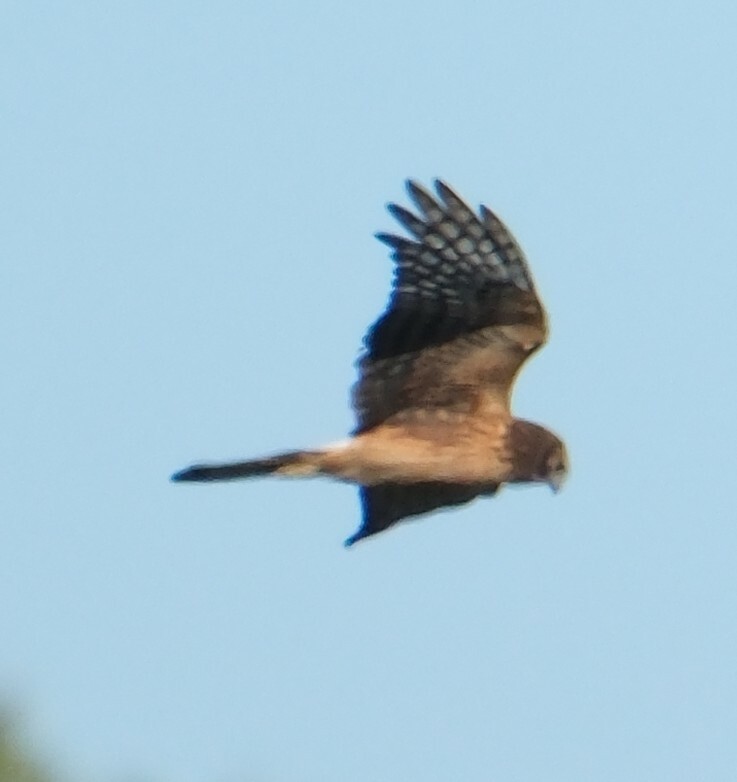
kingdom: Animalia
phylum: Chordata
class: Aves
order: Accipitriformes
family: Accipitridae
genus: Circus
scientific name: Circus cyaneus
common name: Hen harrier
